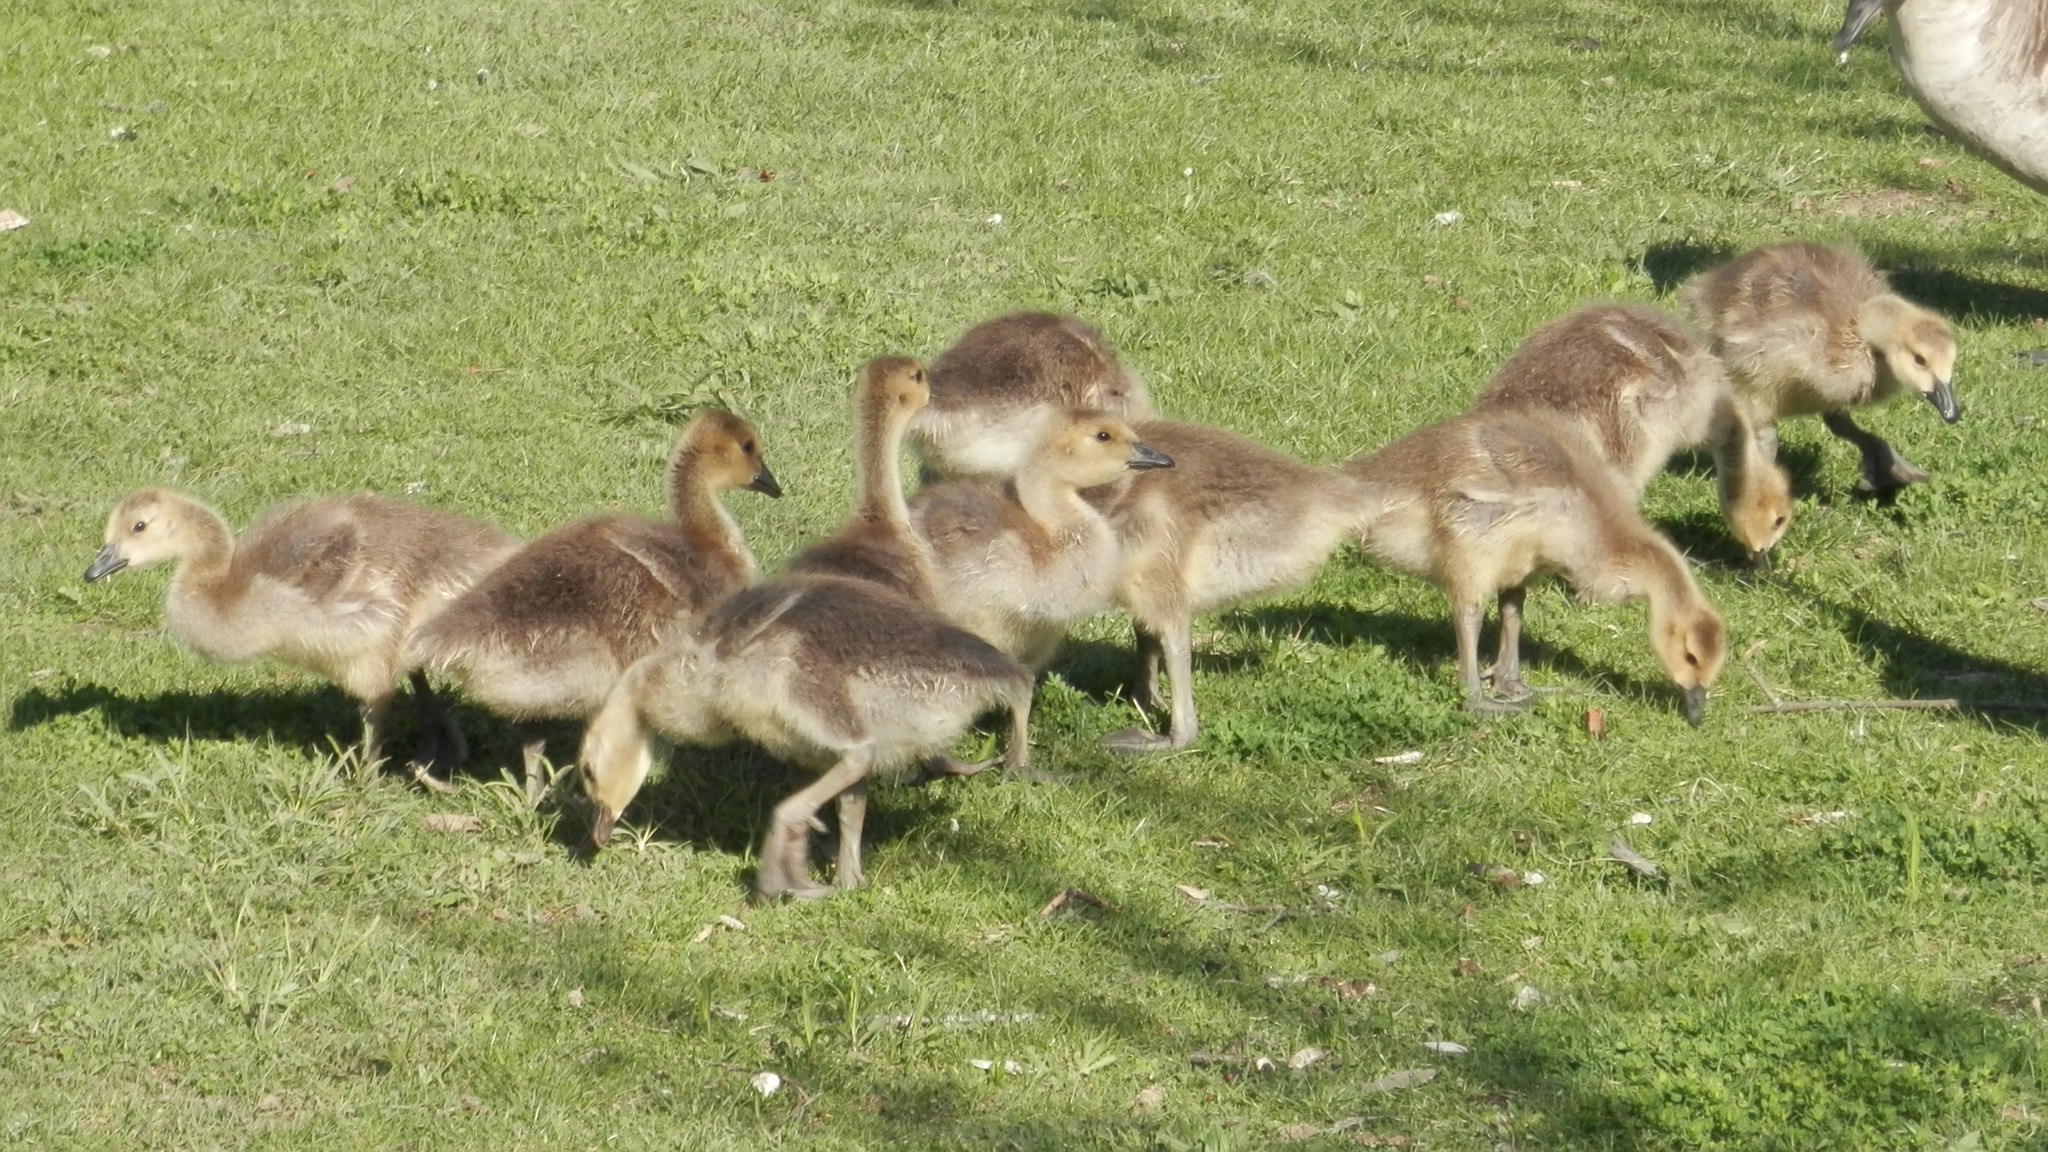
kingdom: Animalia
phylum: Chordata
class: Aves
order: Anseriformes
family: Anatidae
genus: Branta
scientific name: Branta canadensis
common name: Canada goose
